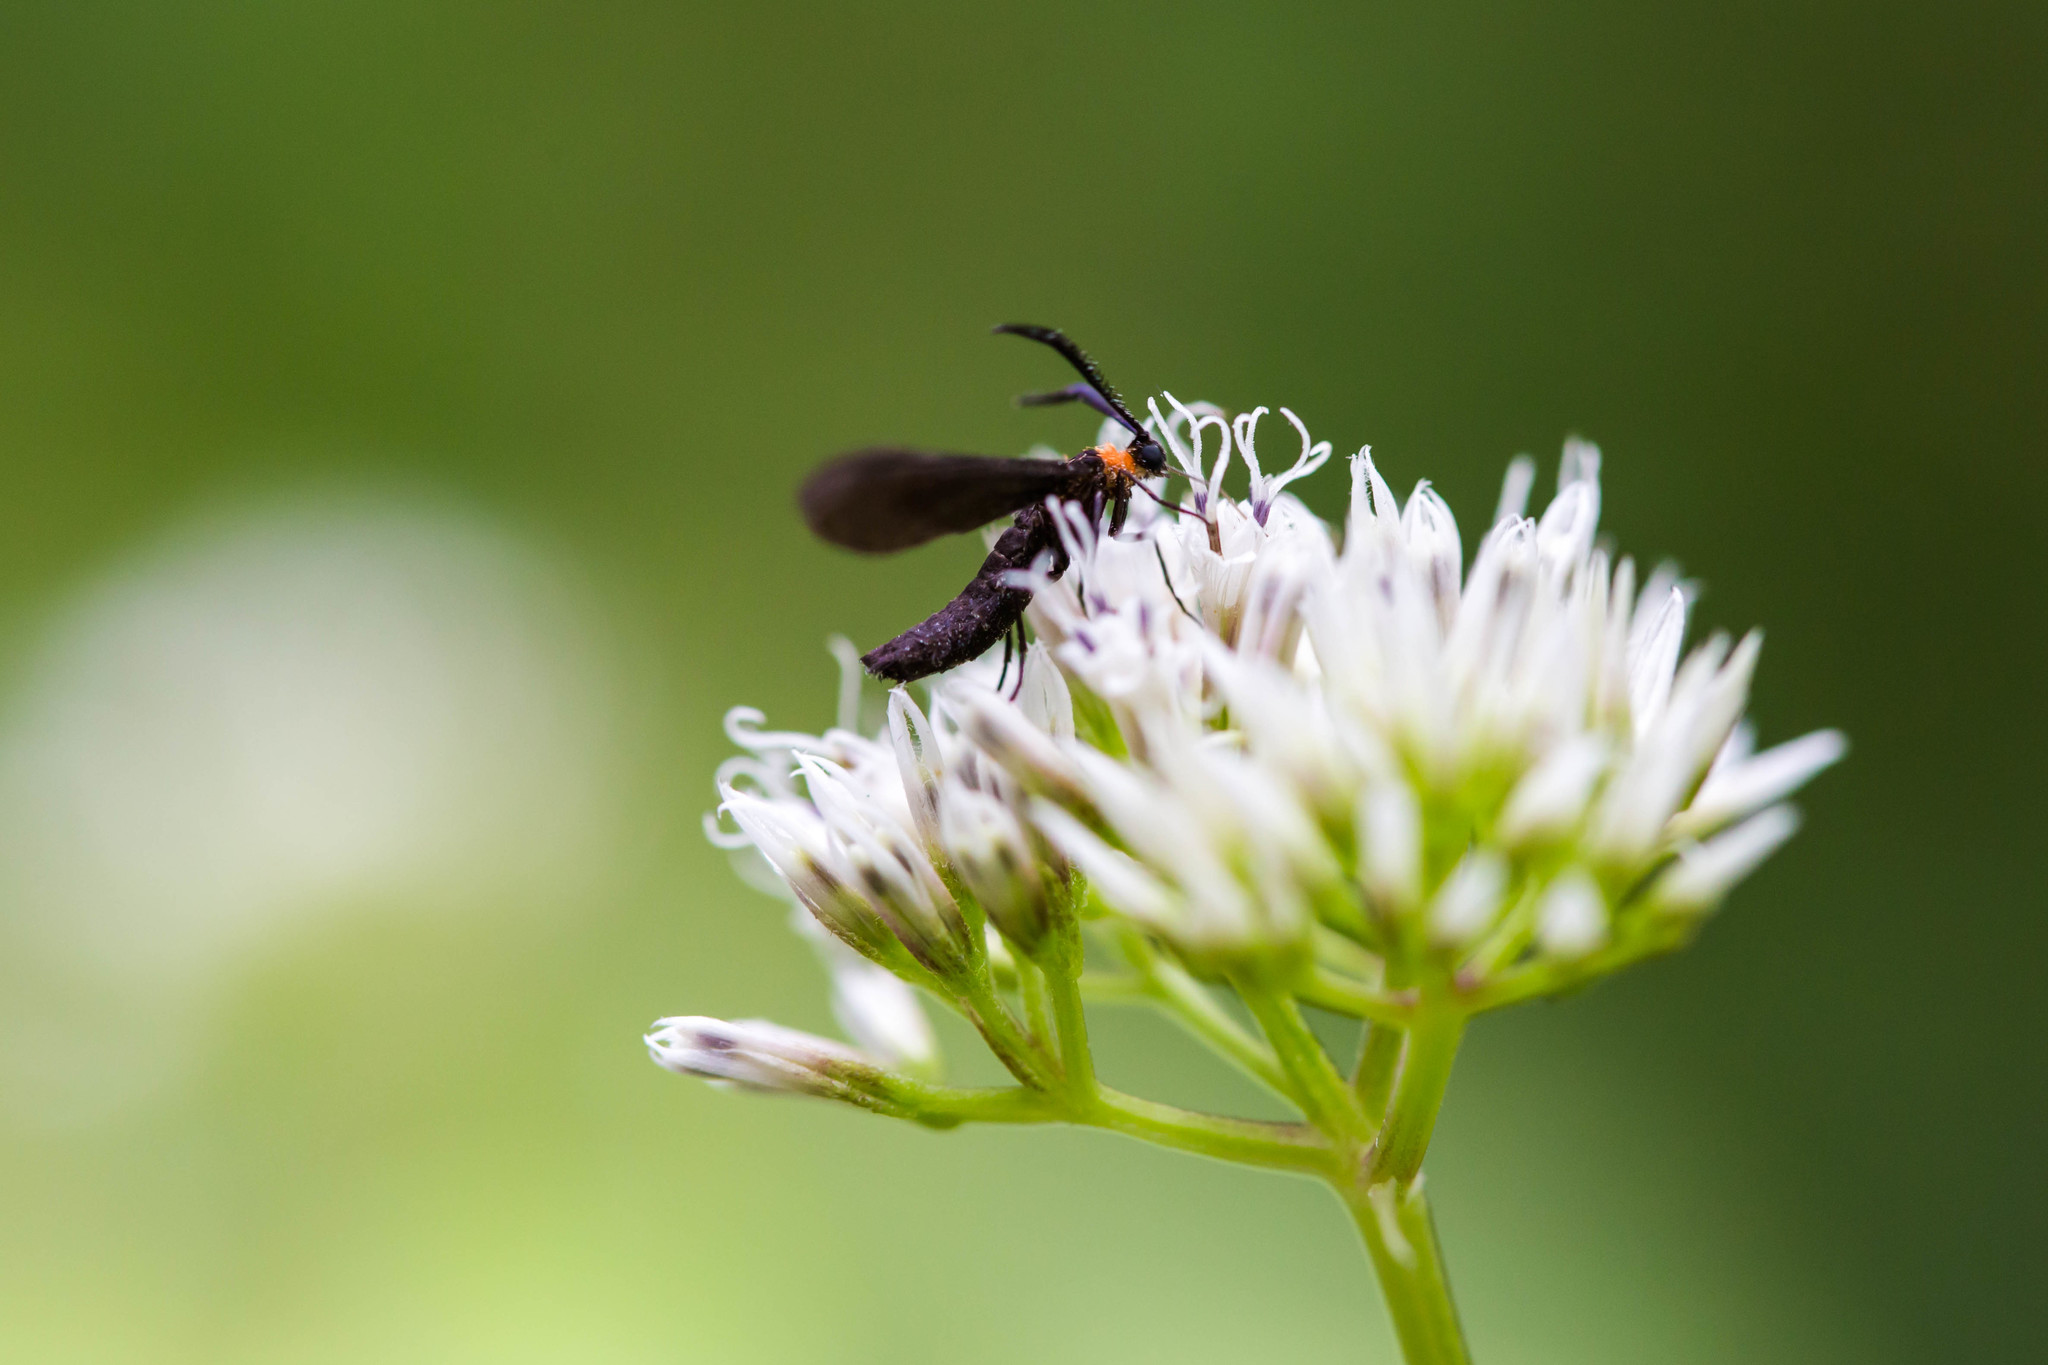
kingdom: Animalia
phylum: Arthropoda
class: Insecta
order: Lepidoptera
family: Zygaenidae
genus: Harrisina
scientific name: Harrisina americana
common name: Grapeleaf skeletonizer moth
